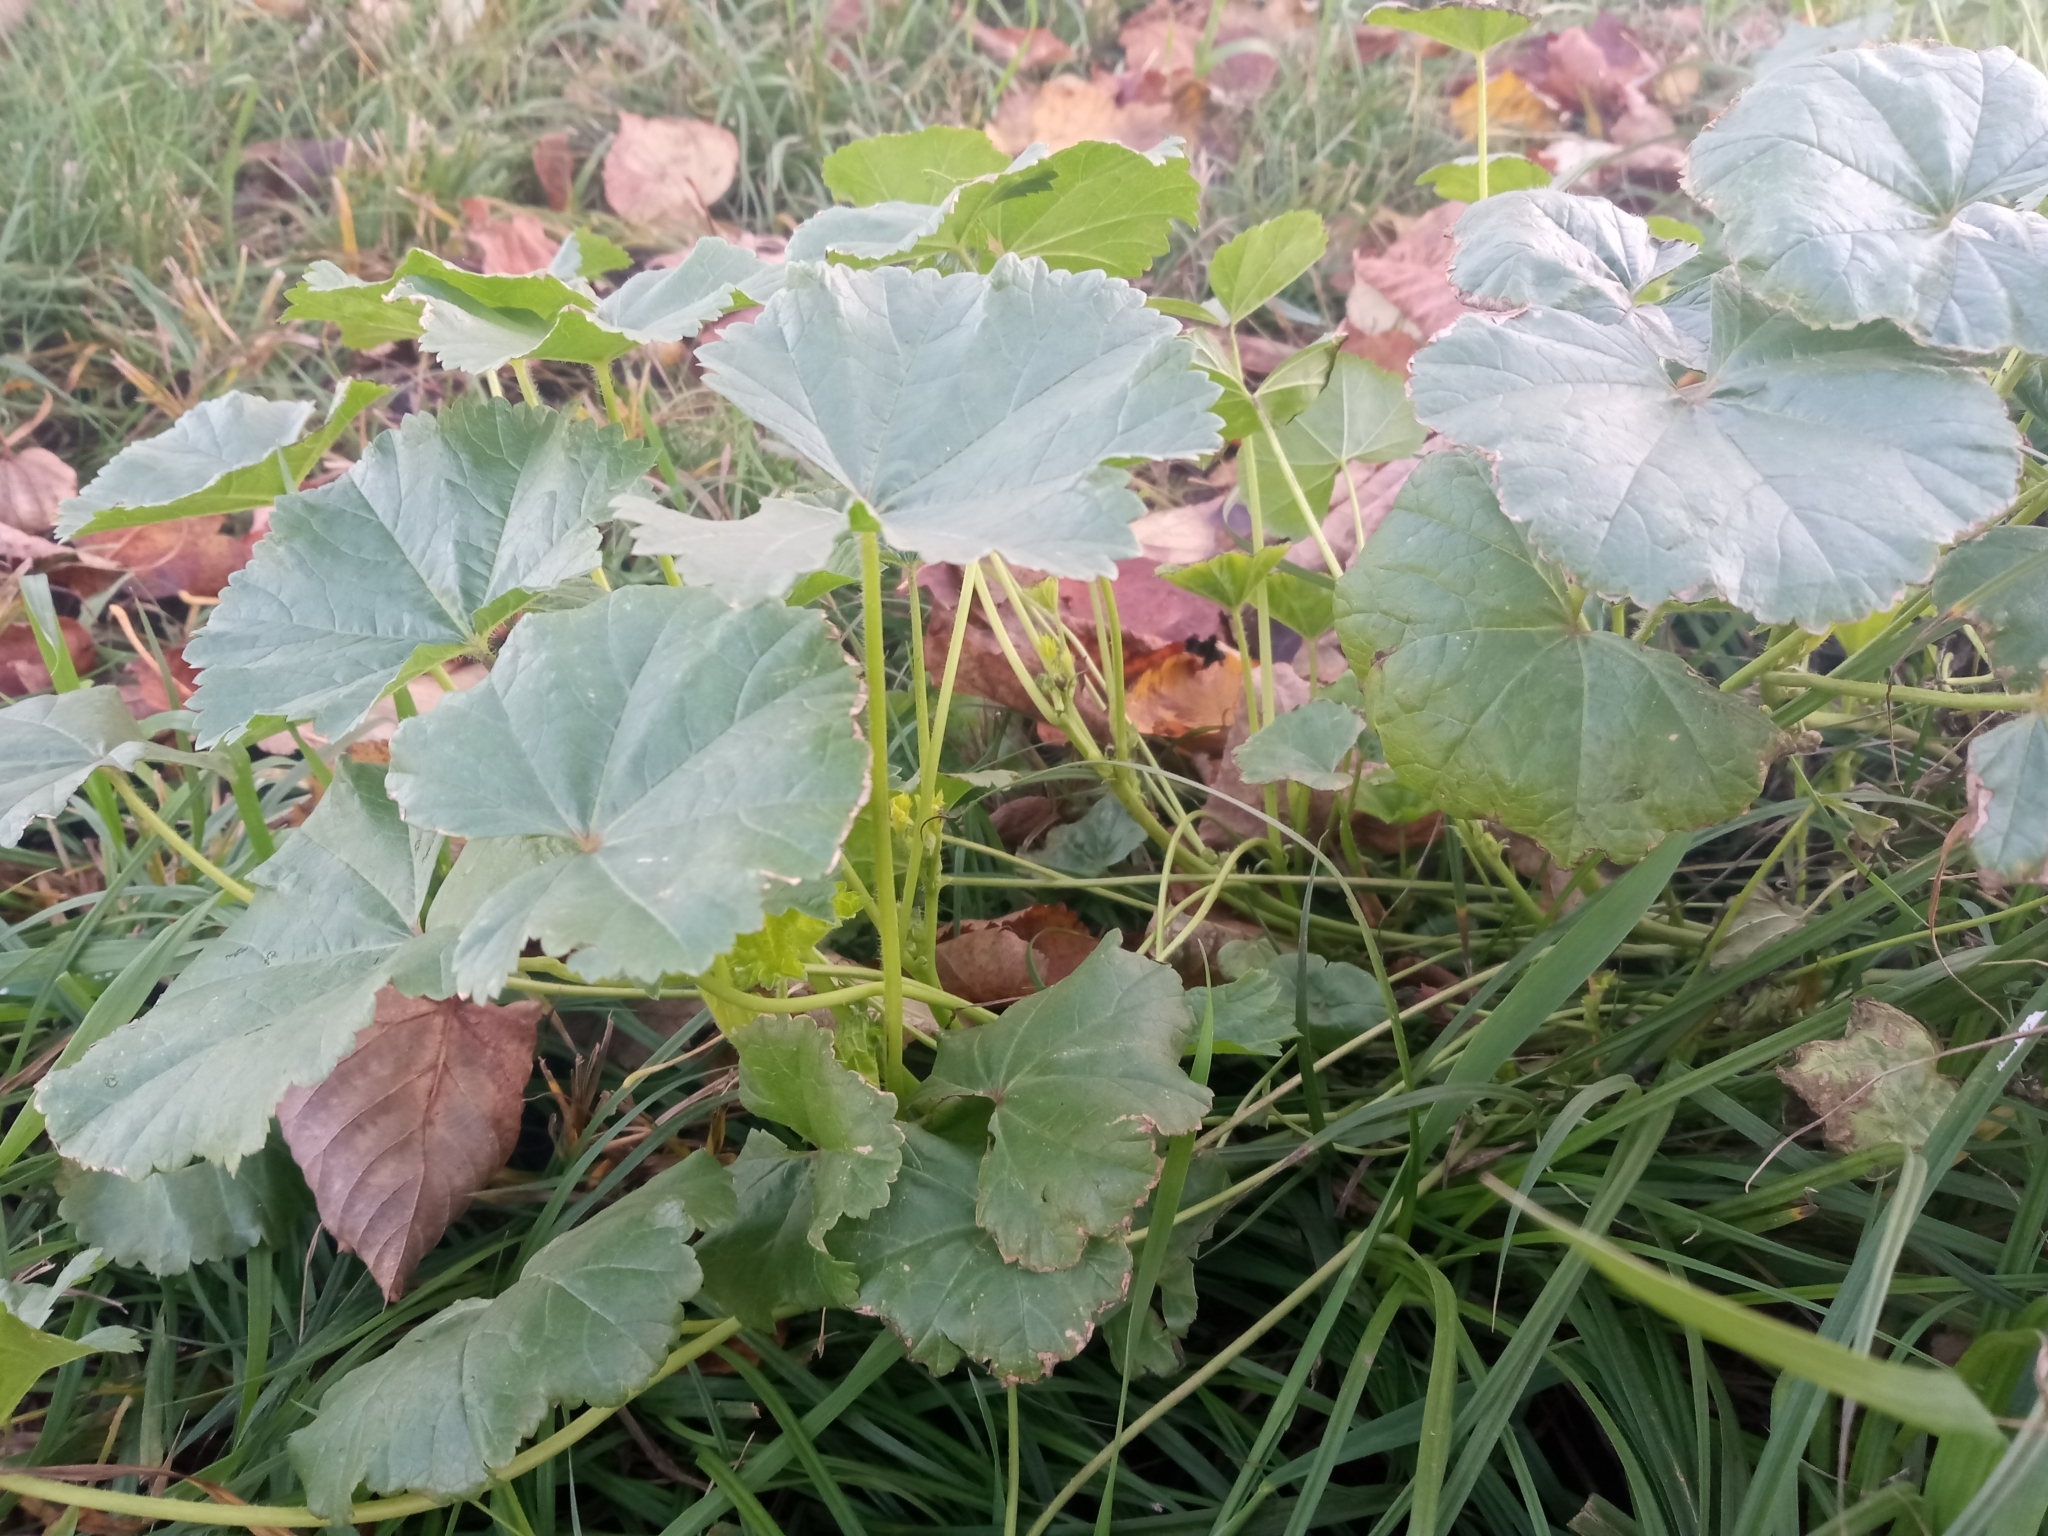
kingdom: Plantae
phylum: Tracheophyta
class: Magnoliopsida
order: Malvales
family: Malvaceae
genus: Malva
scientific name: Malva pusilla
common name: Small mallow
